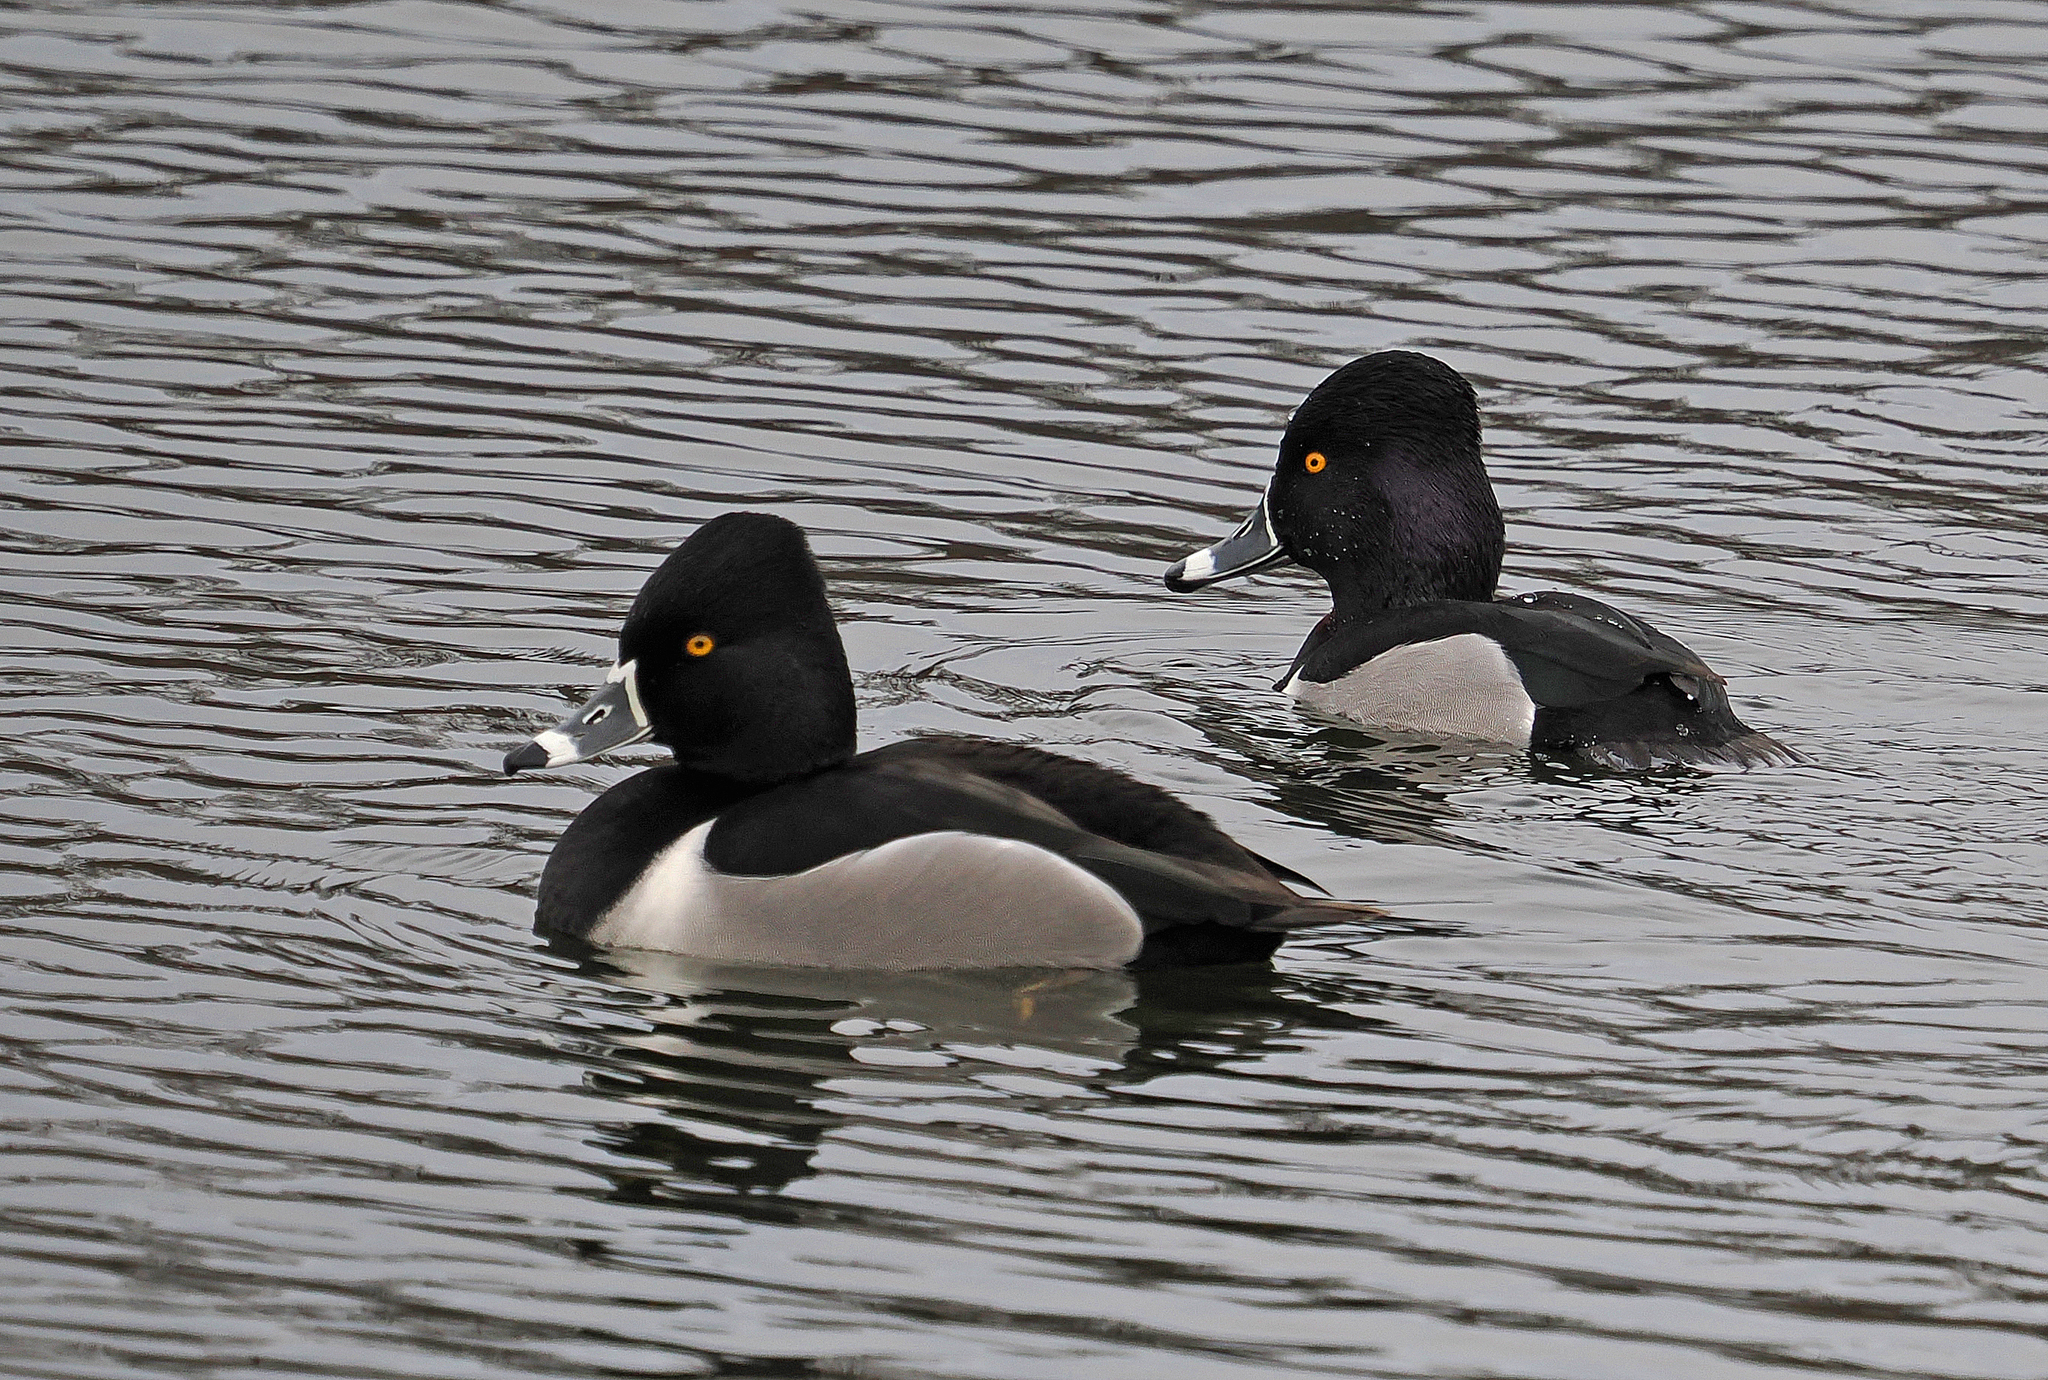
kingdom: Animalia
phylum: Chordata
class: Aves
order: Anseriformes
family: Anatidae
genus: Aythya
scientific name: Aythya collaris
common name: Ring-necked duck
